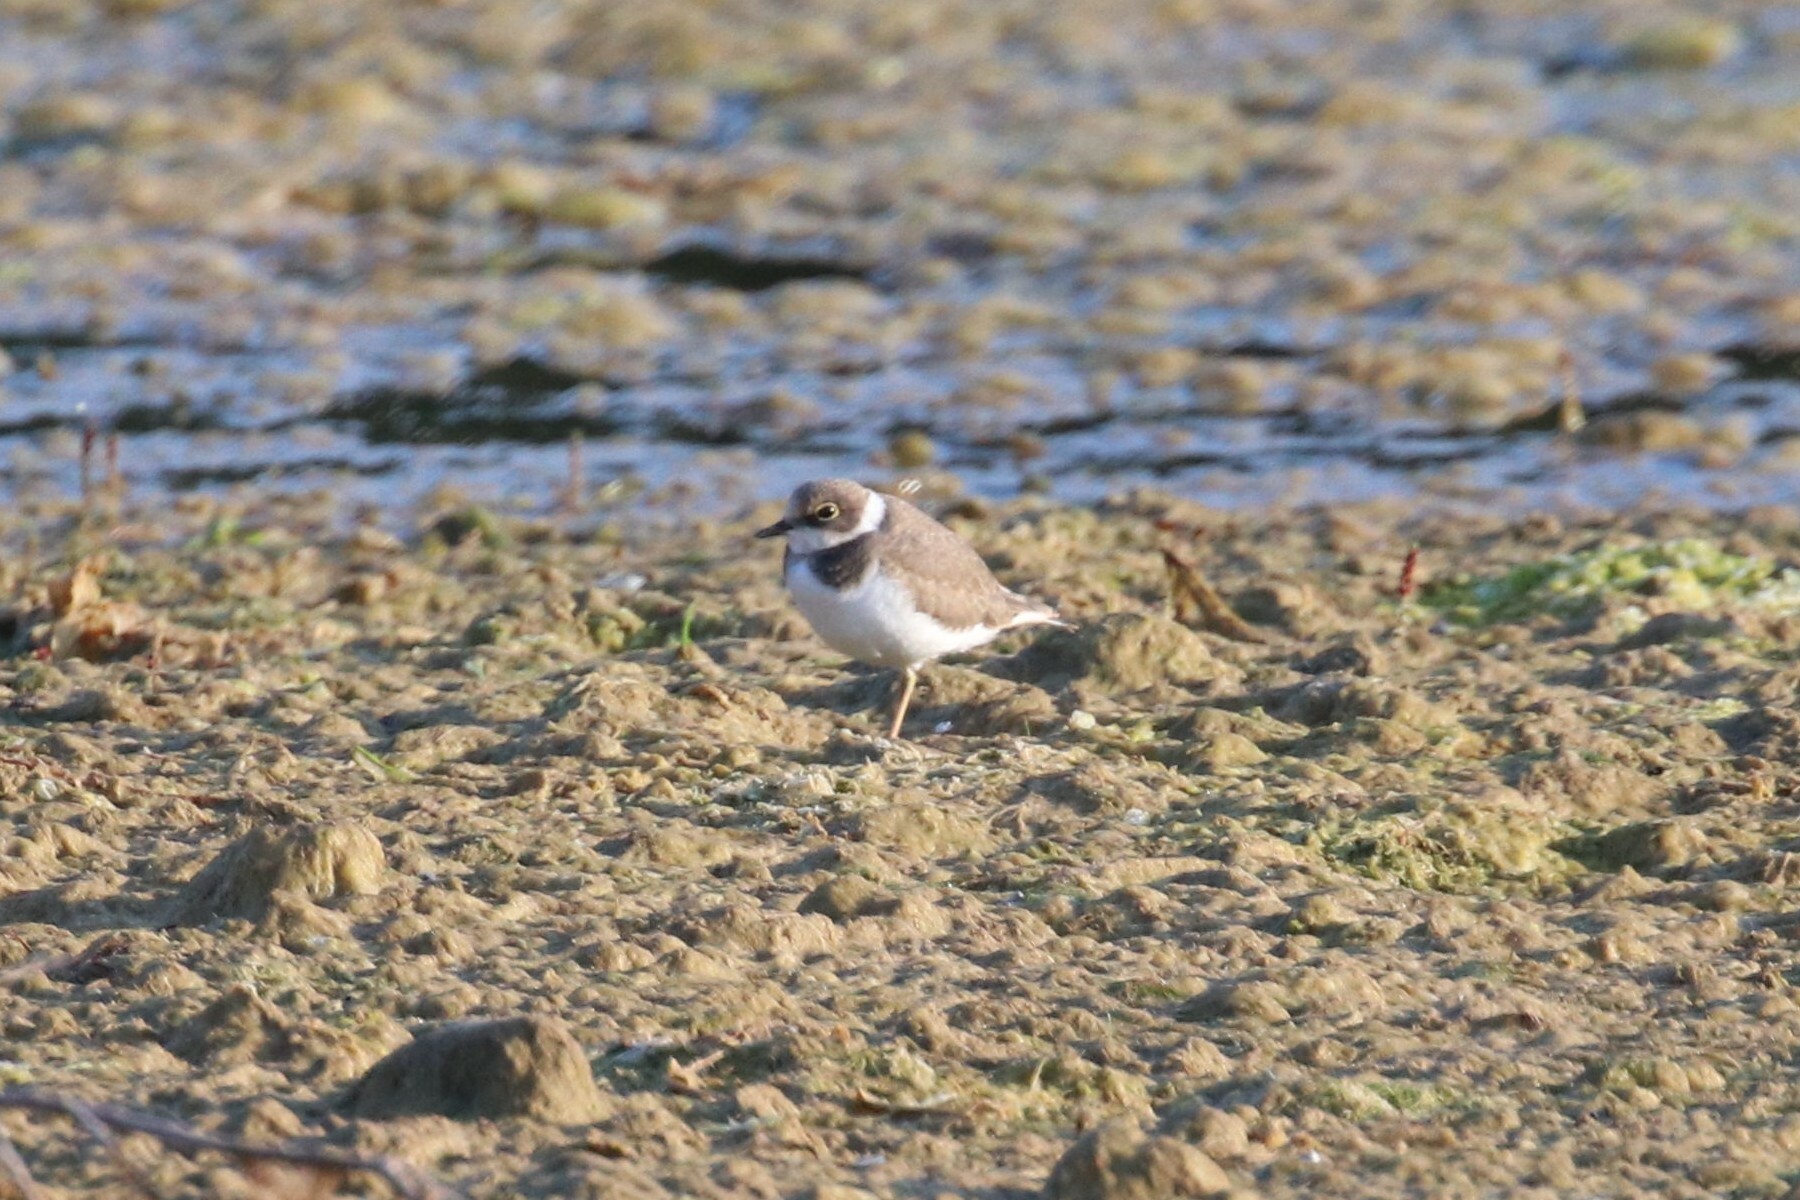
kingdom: Animalia
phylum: Chordata
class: Aves
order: Charadriiformes
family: Charadriidae
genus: Charadrius
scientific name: Charadrius dubius
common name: Little ringed plover
